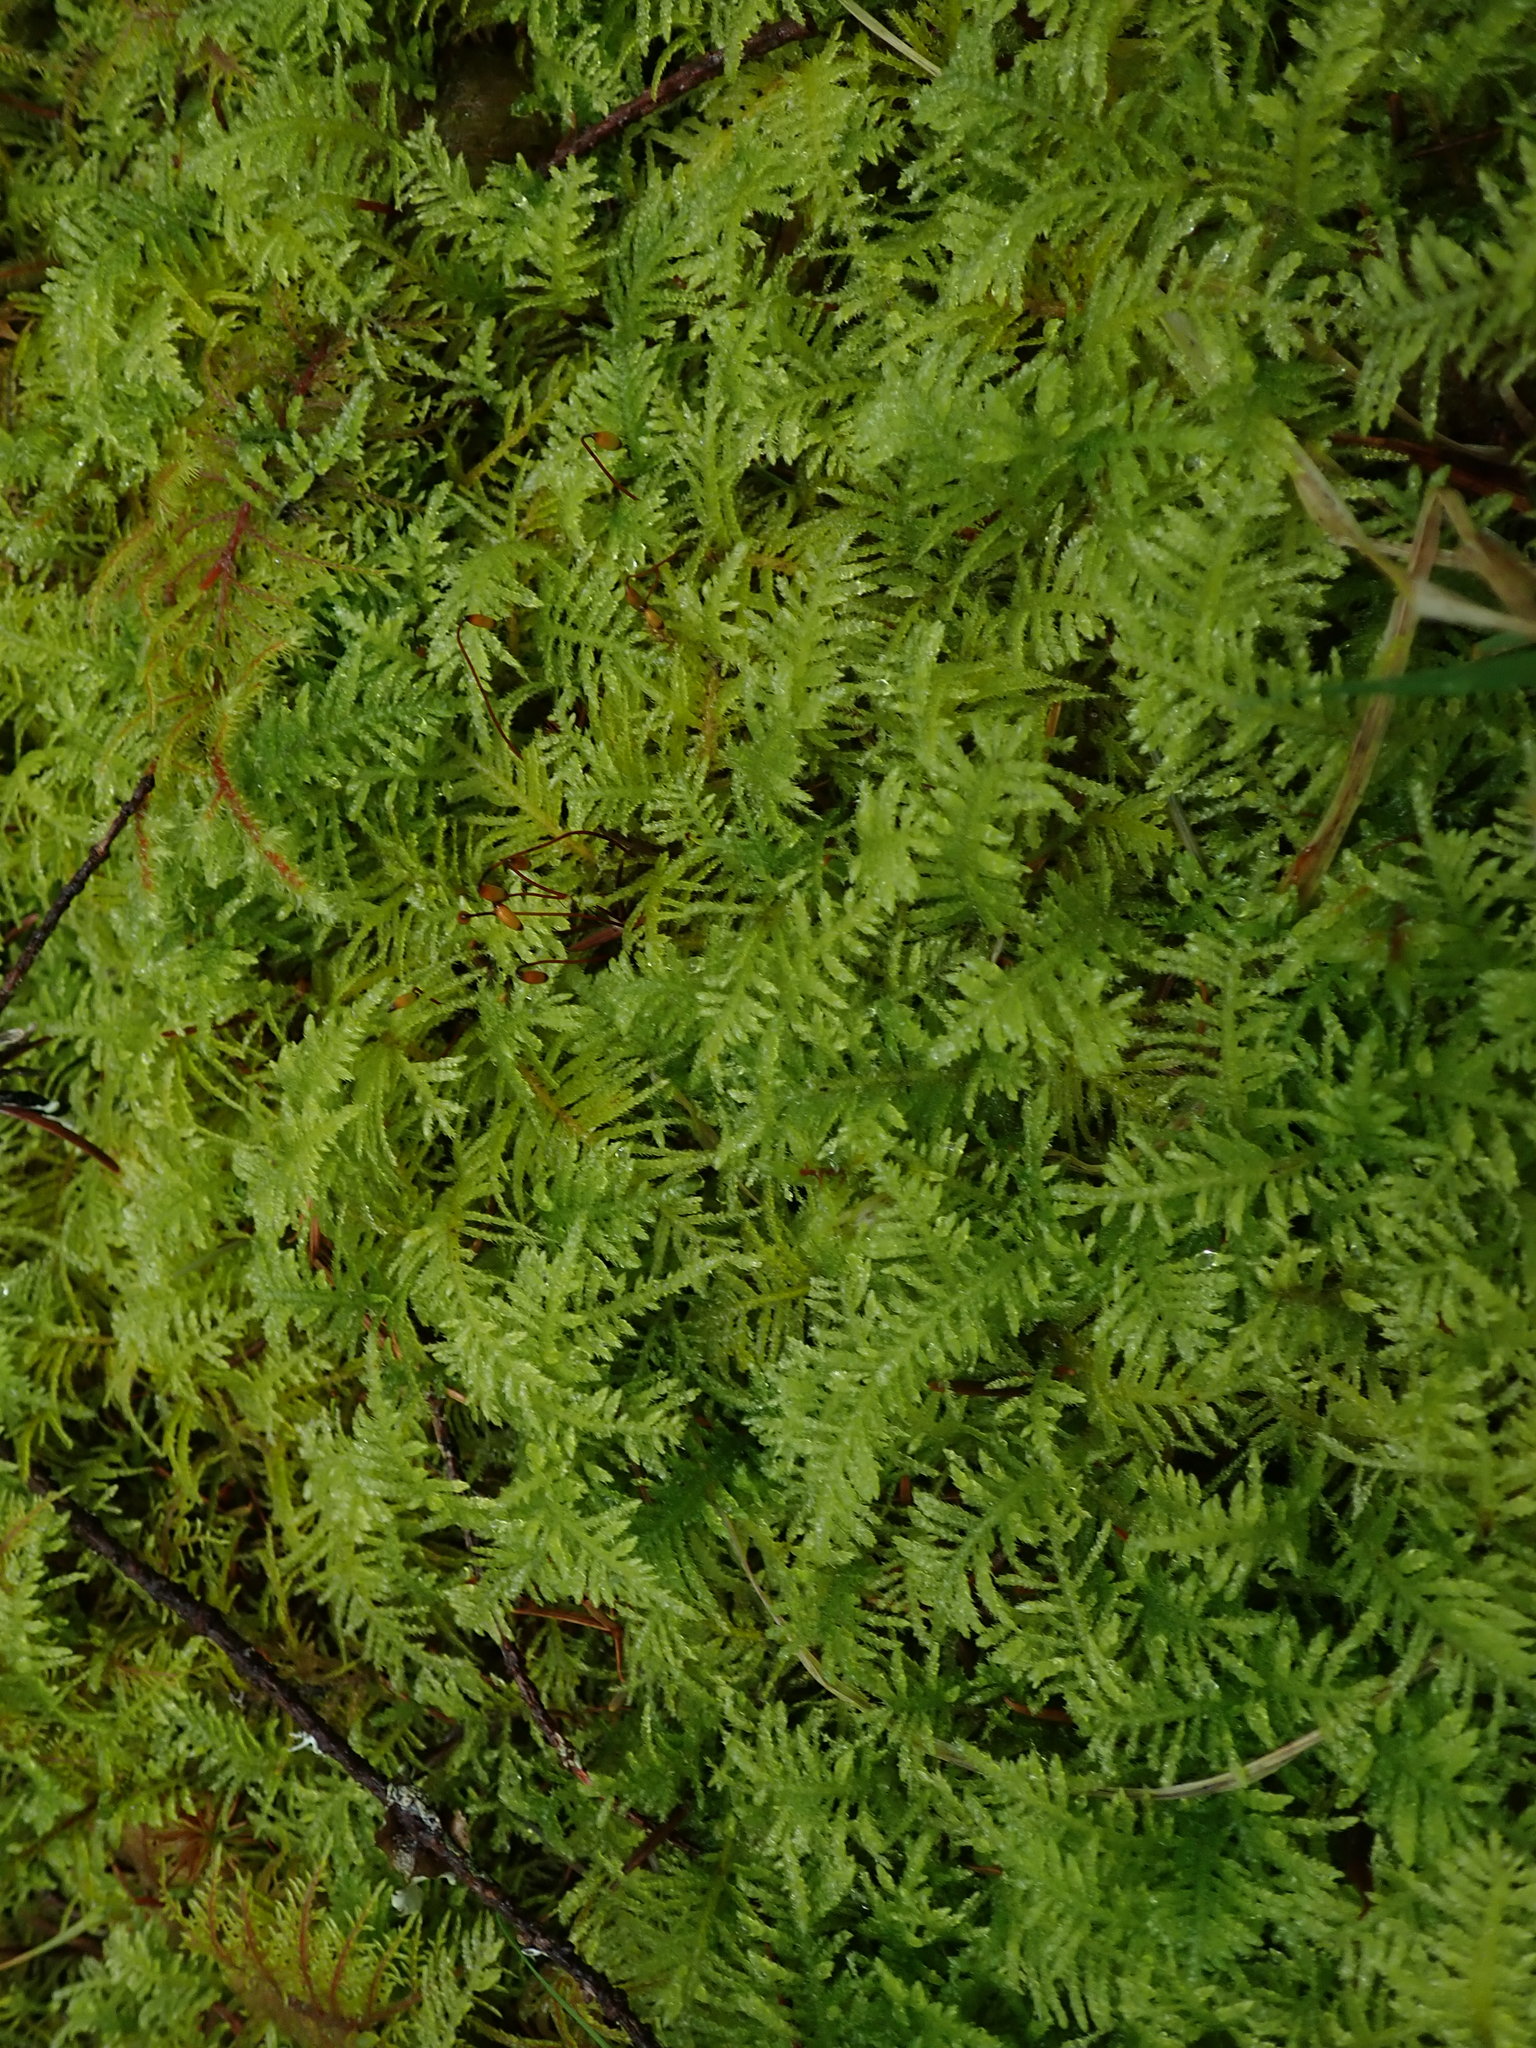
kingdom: Plantae
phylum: Bryophyta
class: Bryopsida
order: Hypnales
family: Brachytheciaceae
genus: Kindbergia
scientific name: Kindbergia oregana
